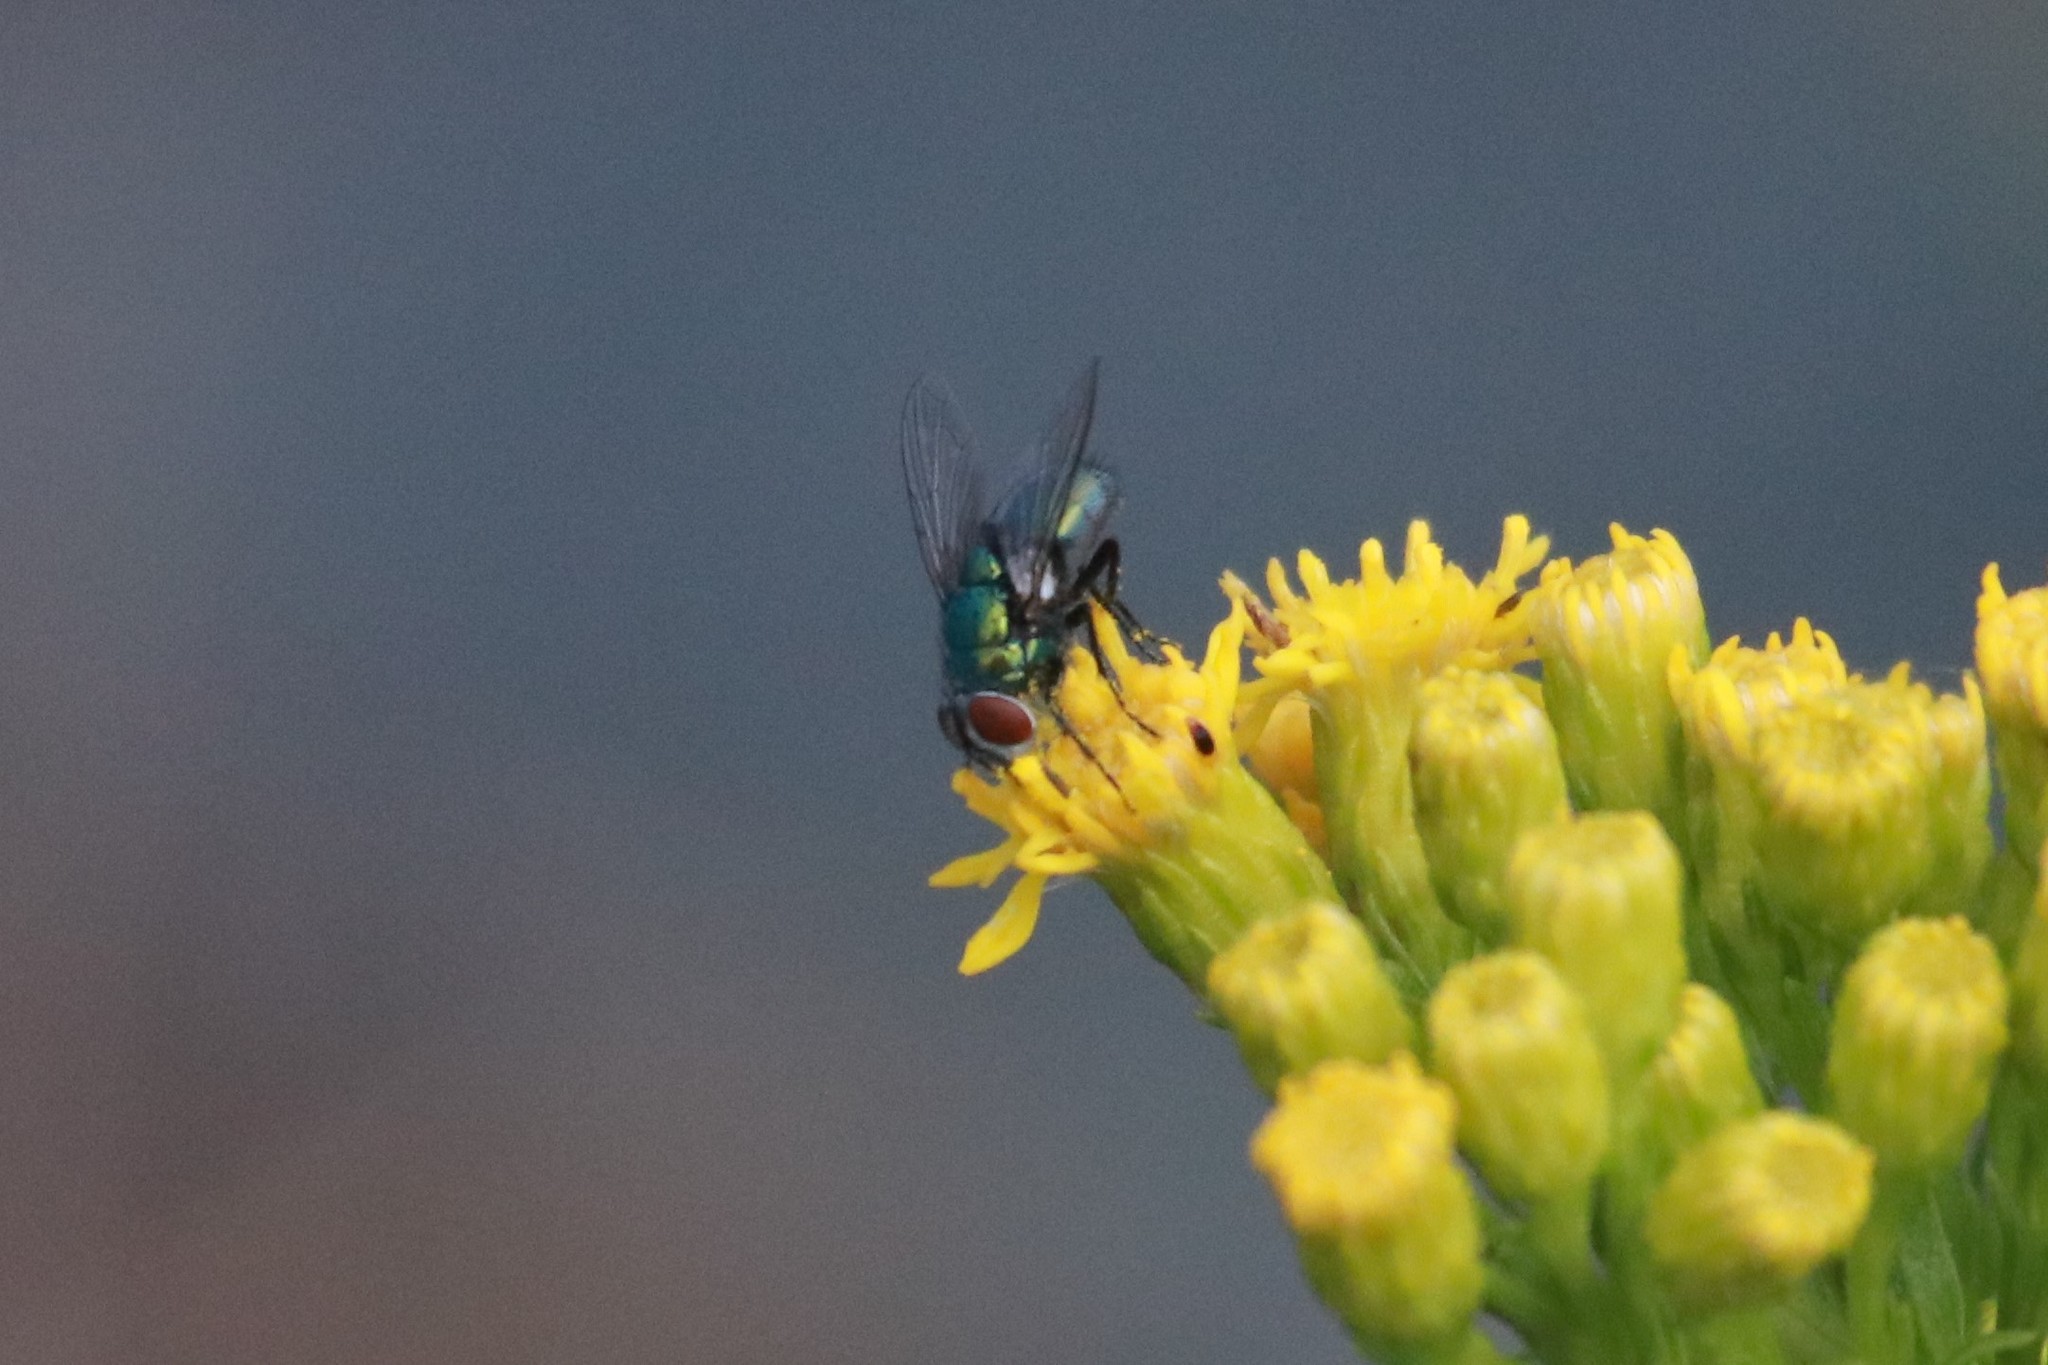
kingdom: Animalia
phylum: Arthropoda
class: Insecta
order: Diptera
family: Calliphoridae
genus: Lucilia
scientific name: Lucilia sericata
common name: Blow fly
